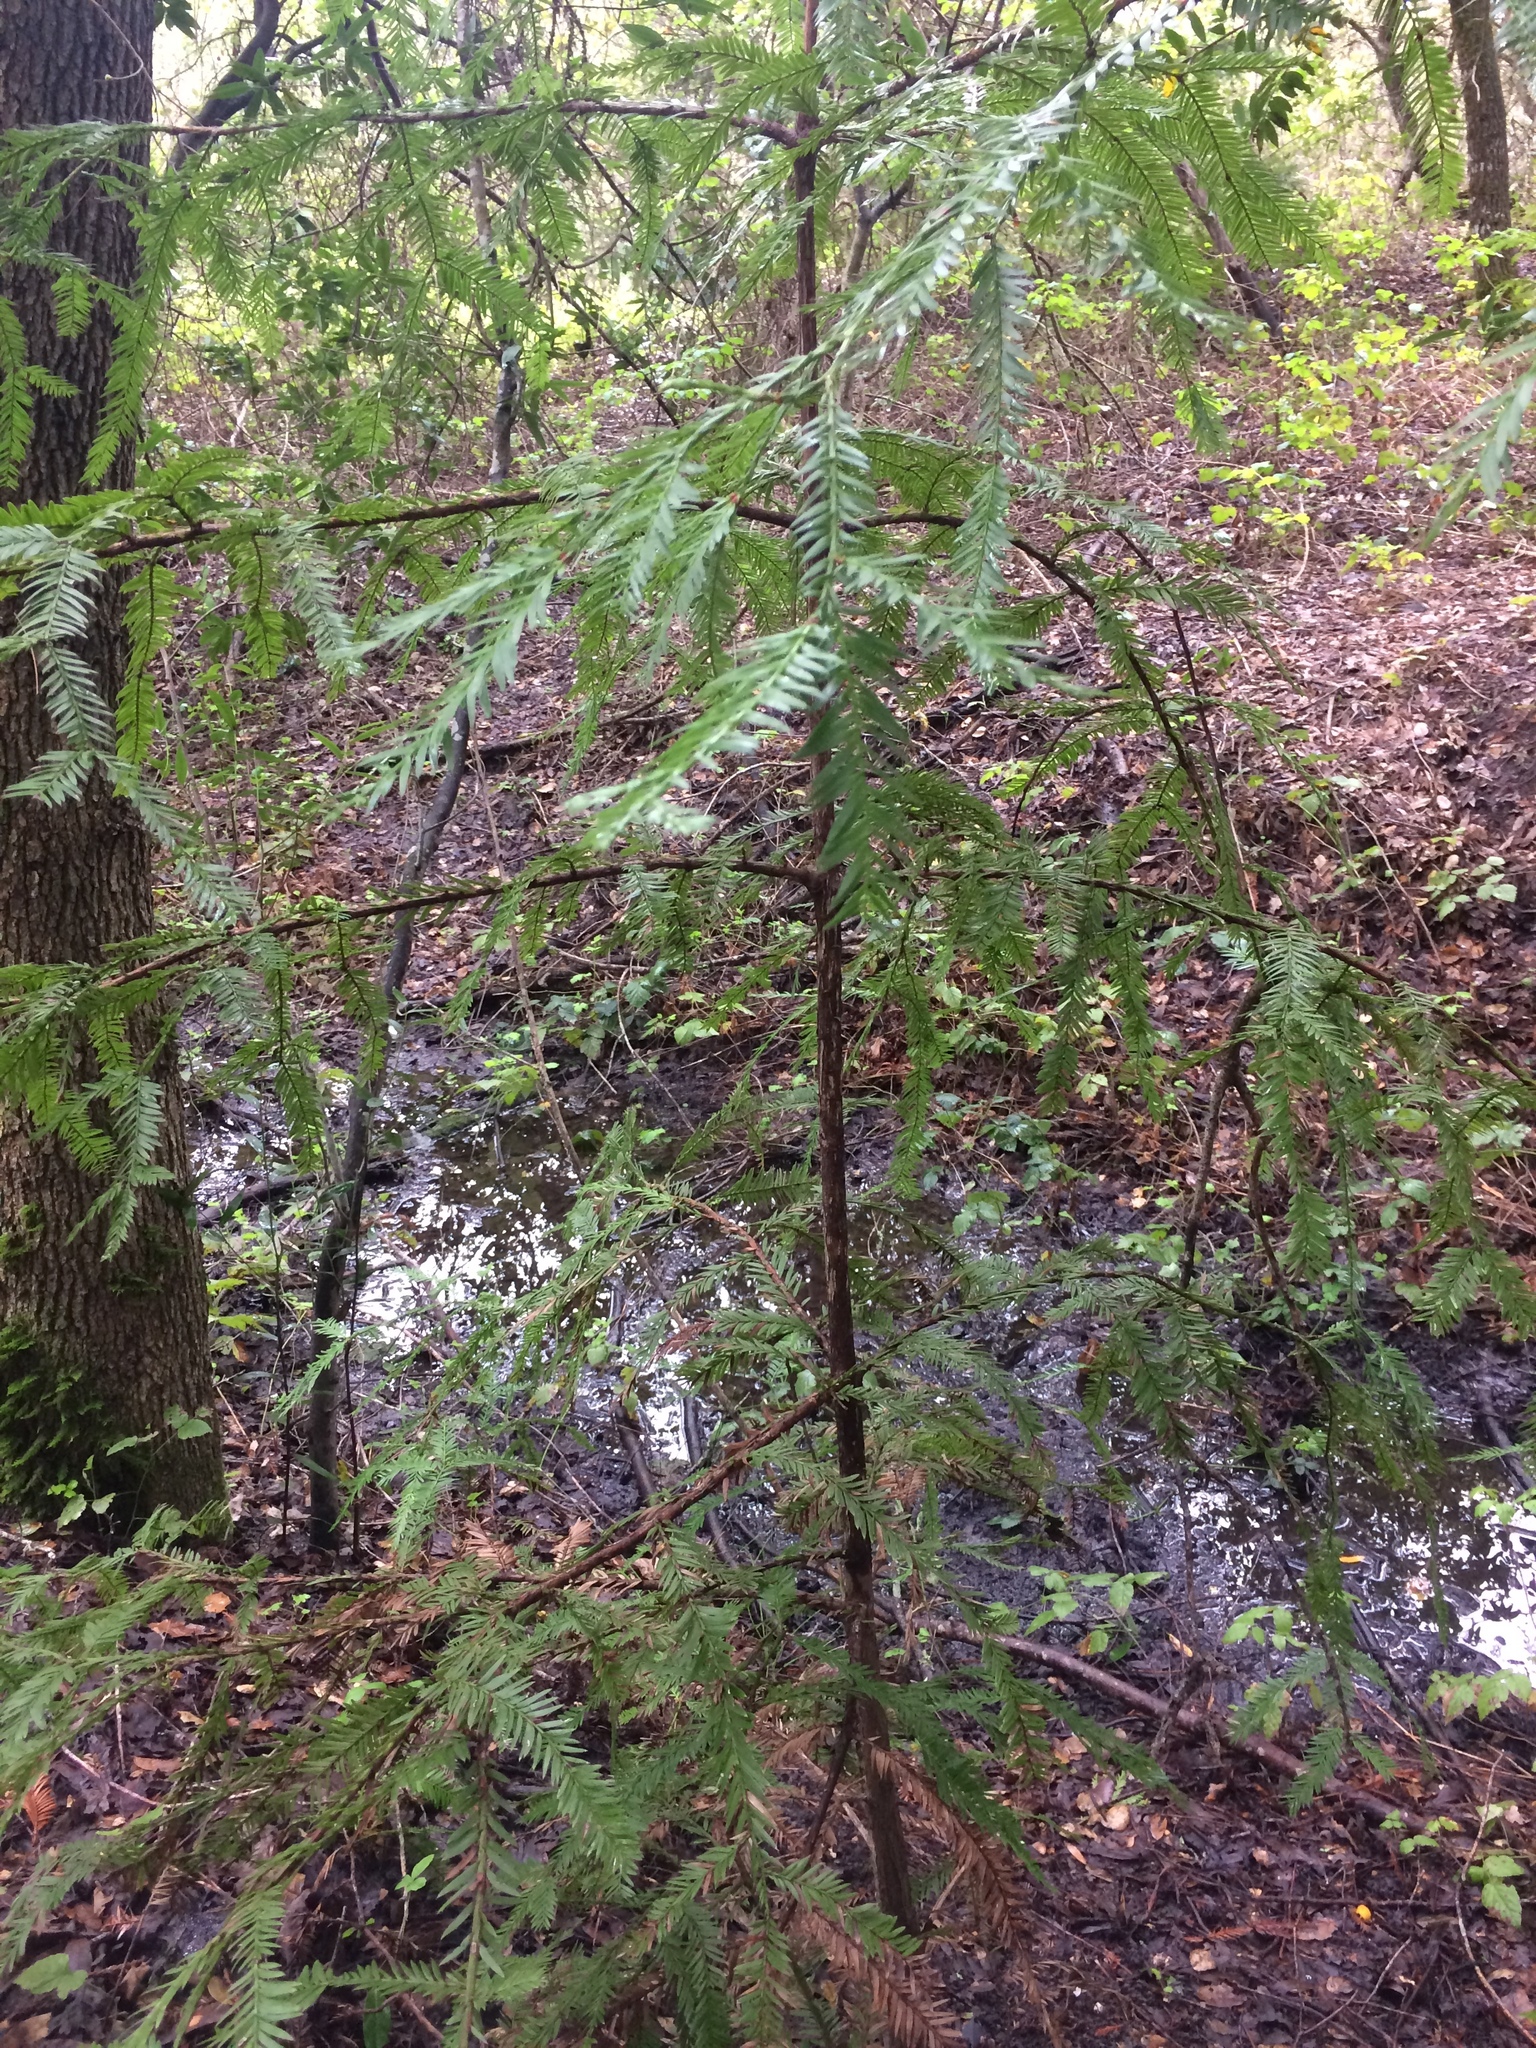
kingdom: Plantae
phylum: Tracheophyta
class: Pinopsida
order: Pinales
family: Cupressaceae
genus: Sequoia
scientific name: Sequoia sempervirens
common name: Coast redwood
